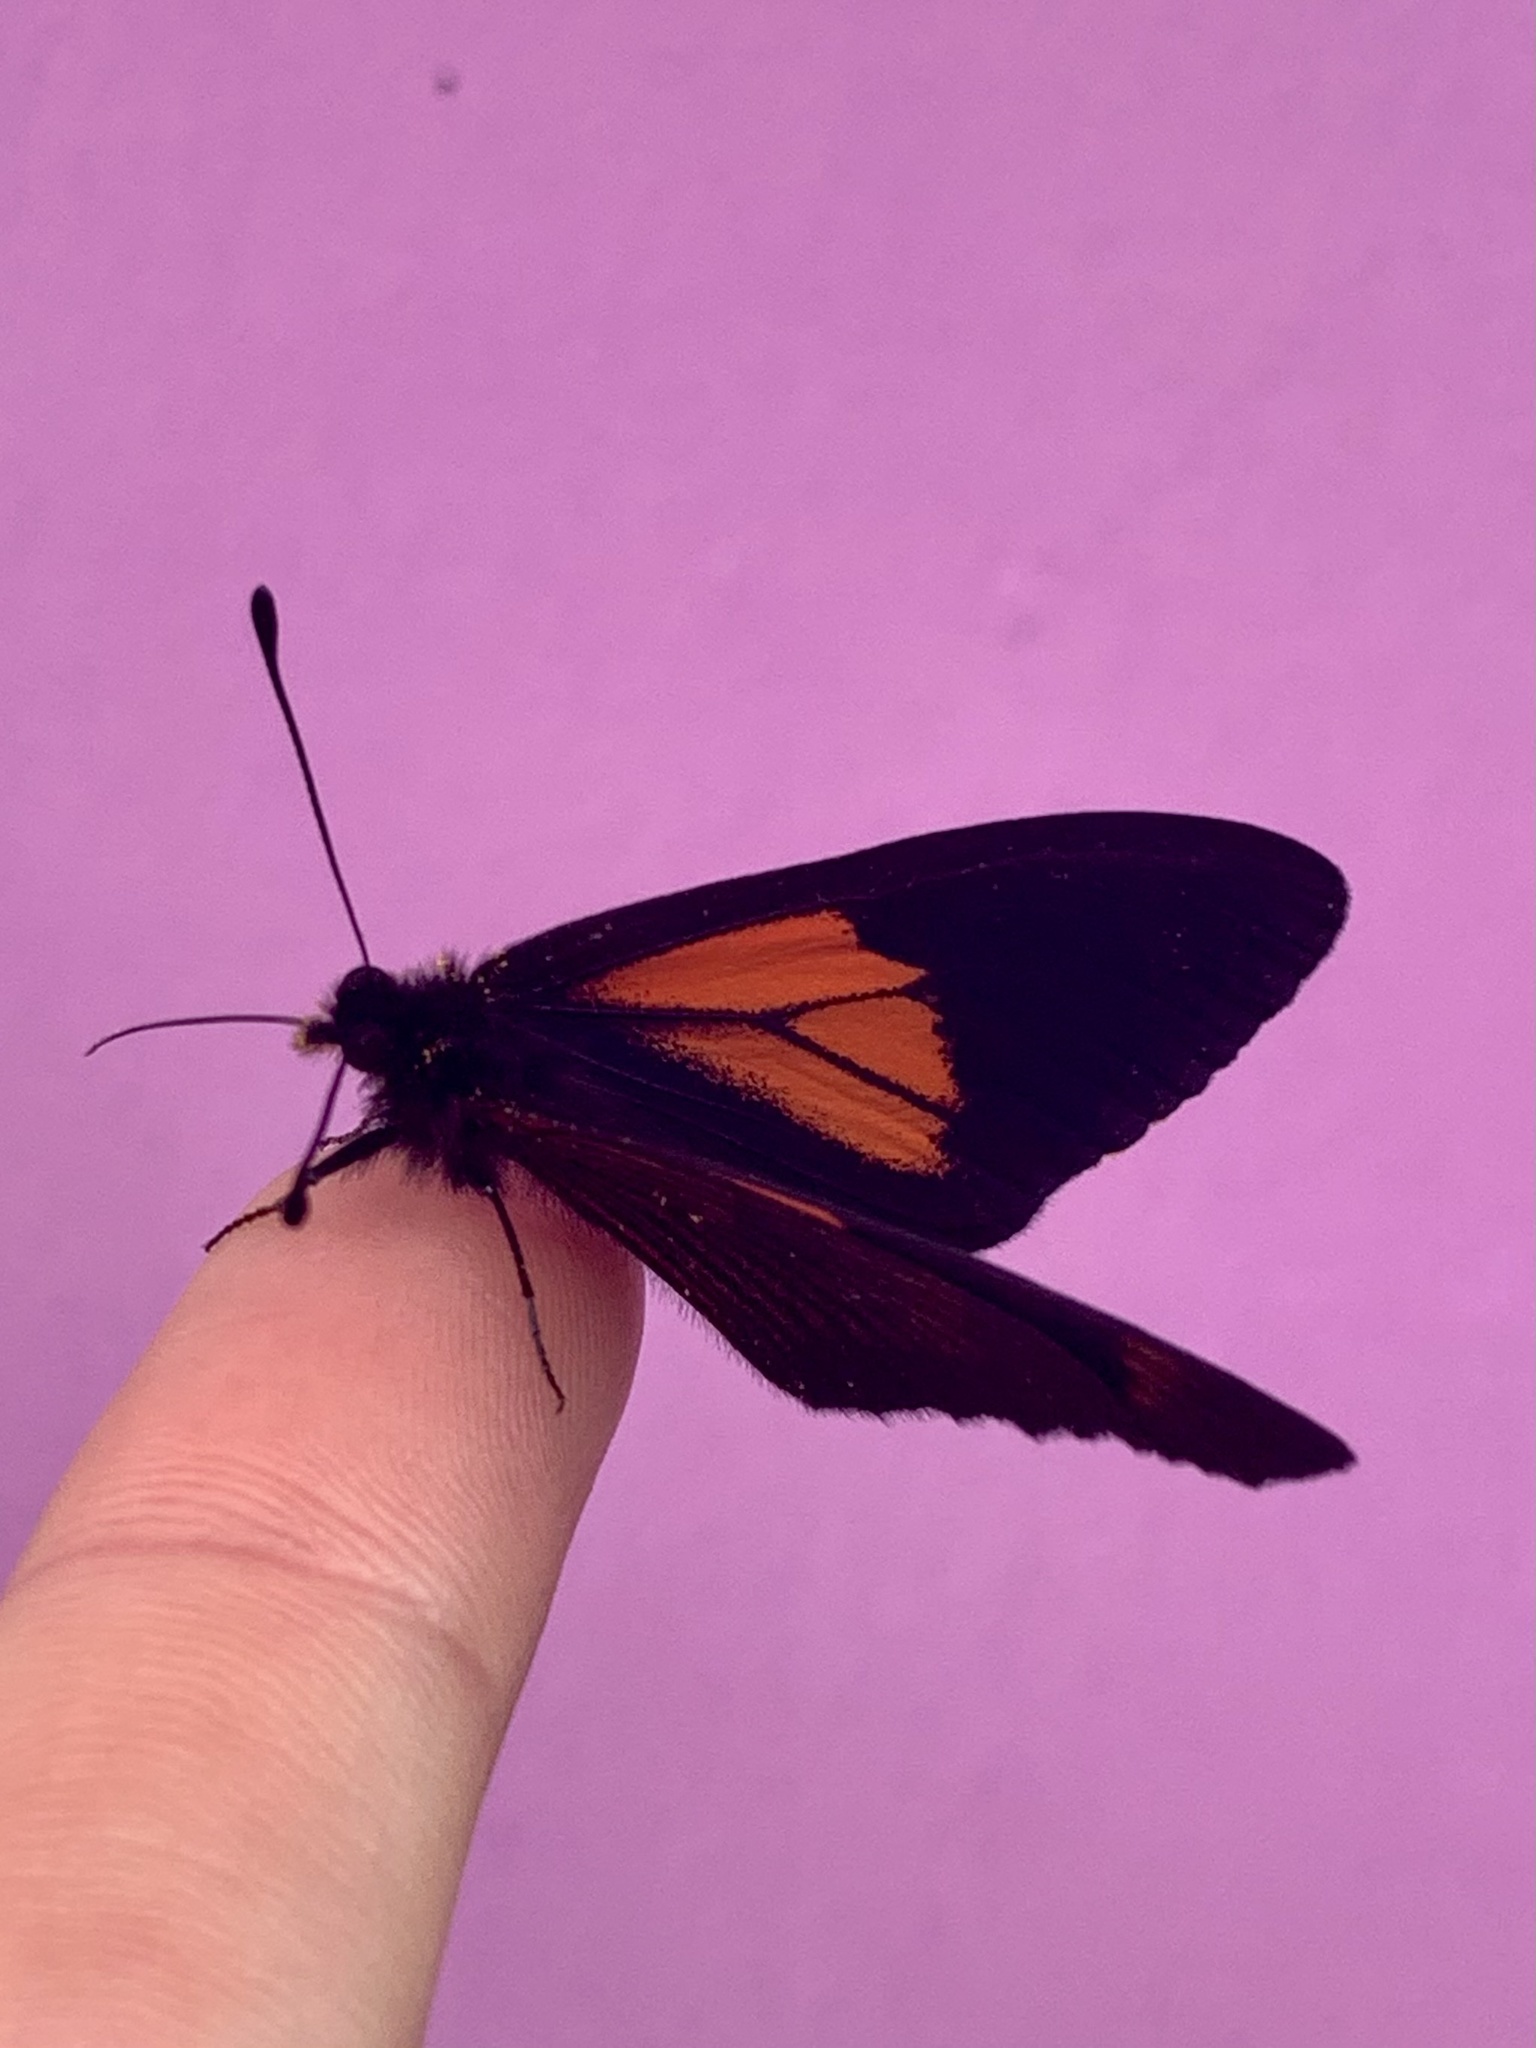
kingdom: Animalia
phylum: Arthropoda
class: Insecta
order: Lepidoptera
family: Nymphalidae
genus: Acraea
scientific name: Acraea tenebrarum
